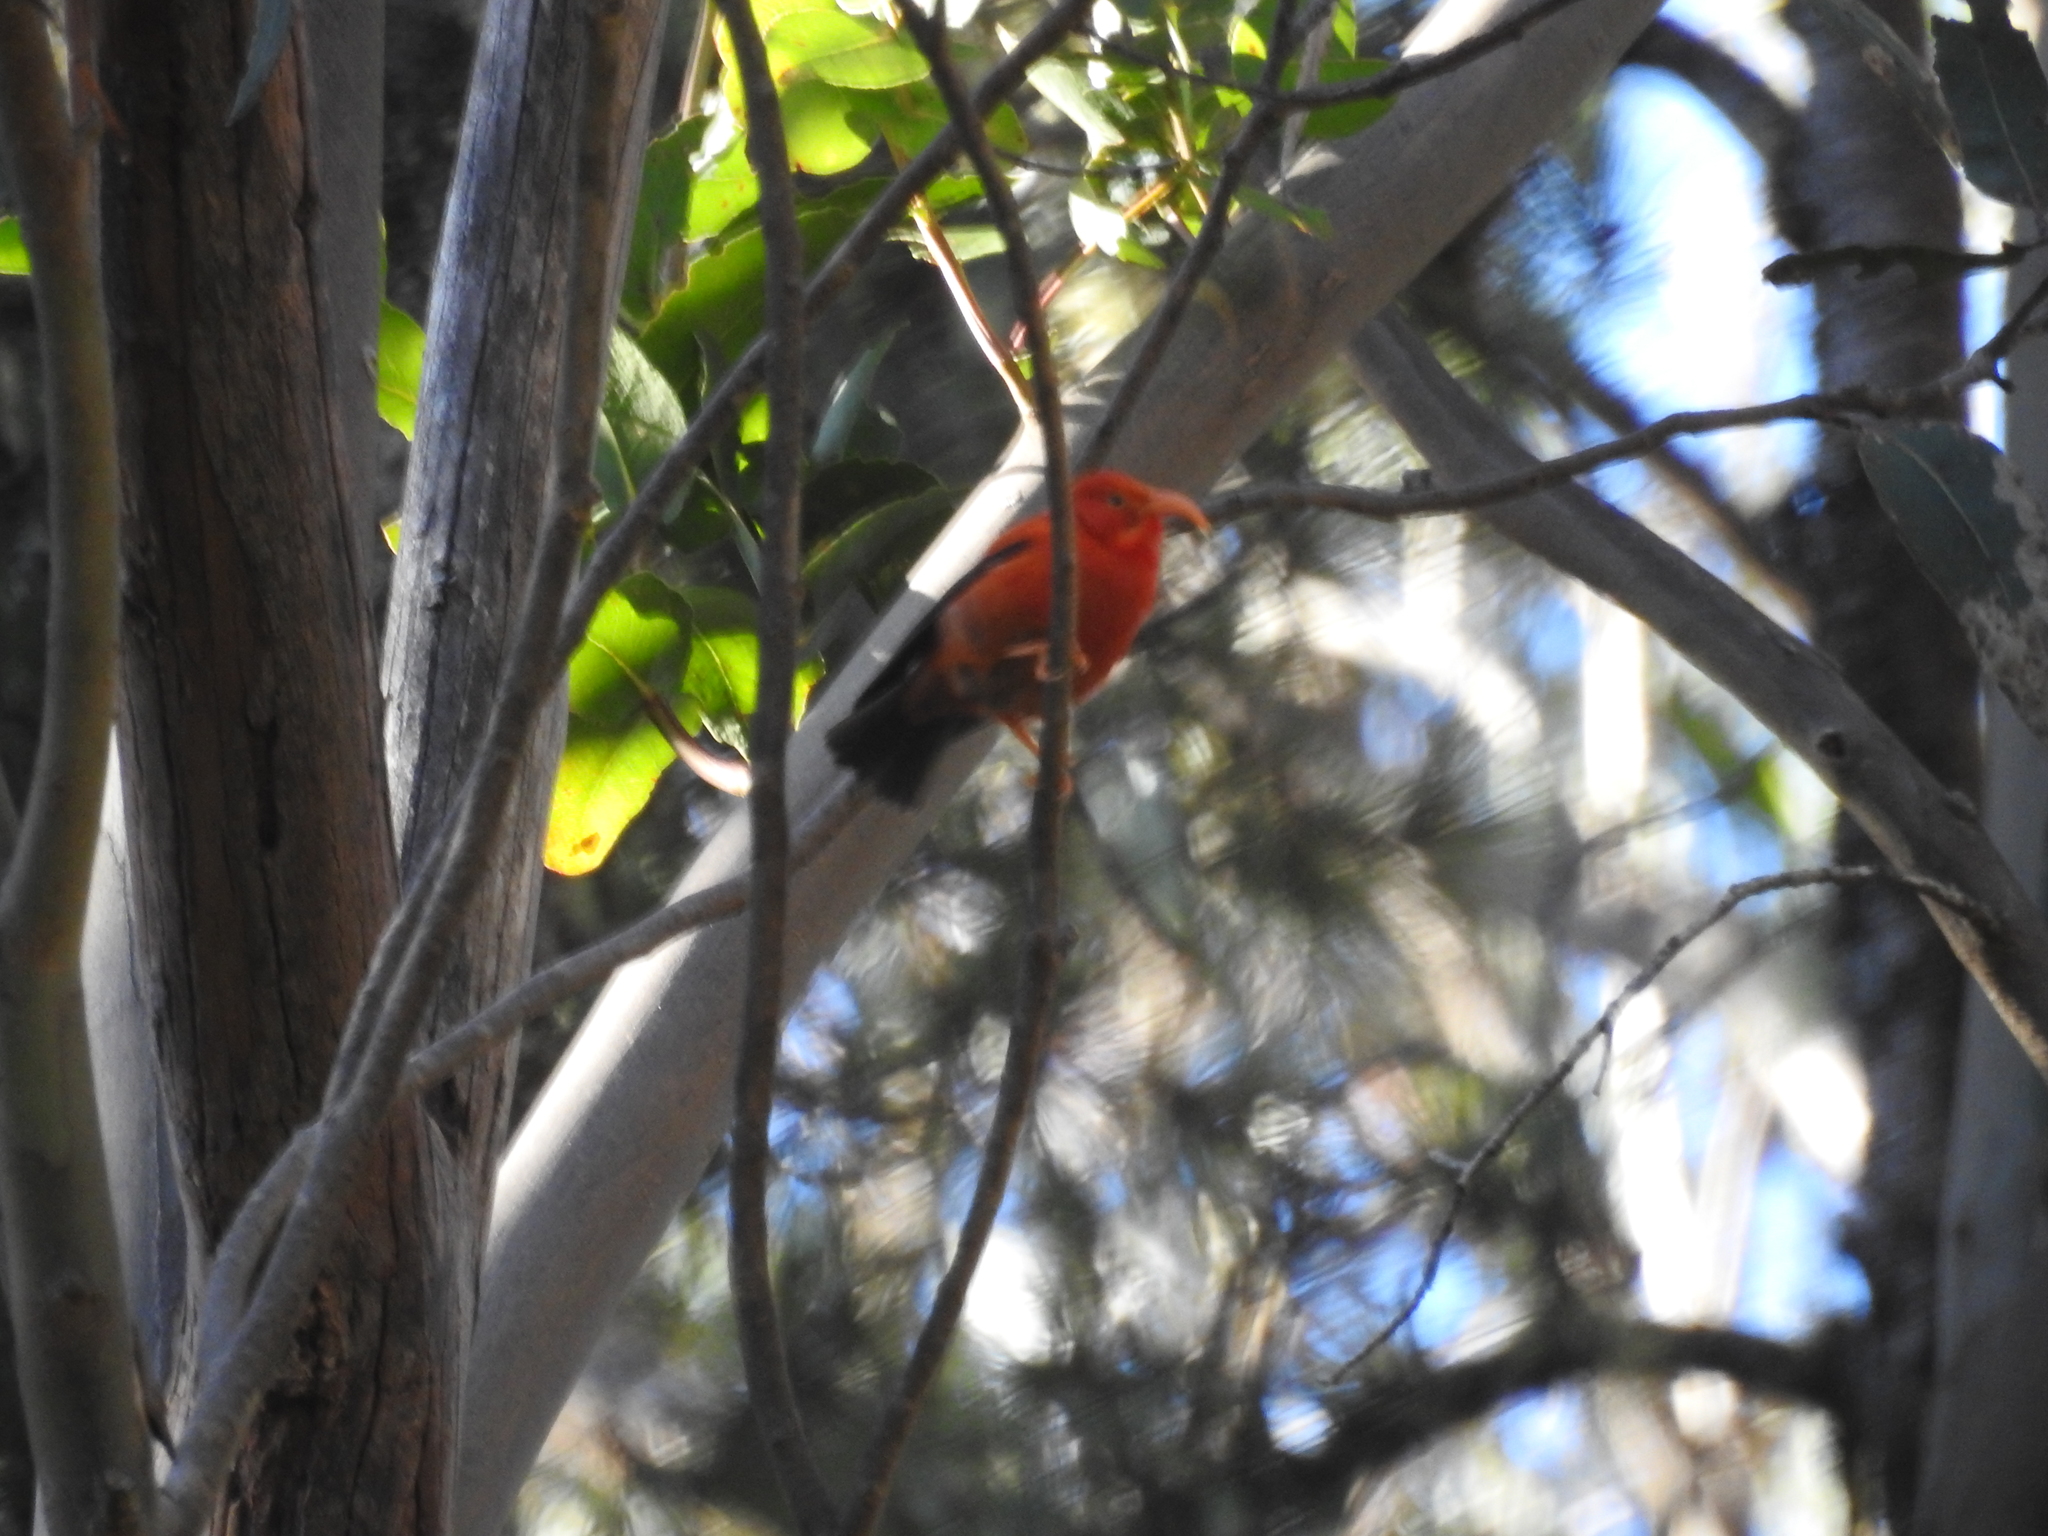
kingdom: Animalia
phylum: Chordata
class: Aves
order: Passeriformes
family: Fringillidae
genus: Vestiaria
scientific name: Vestiaria coccinea
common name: Iiwi
